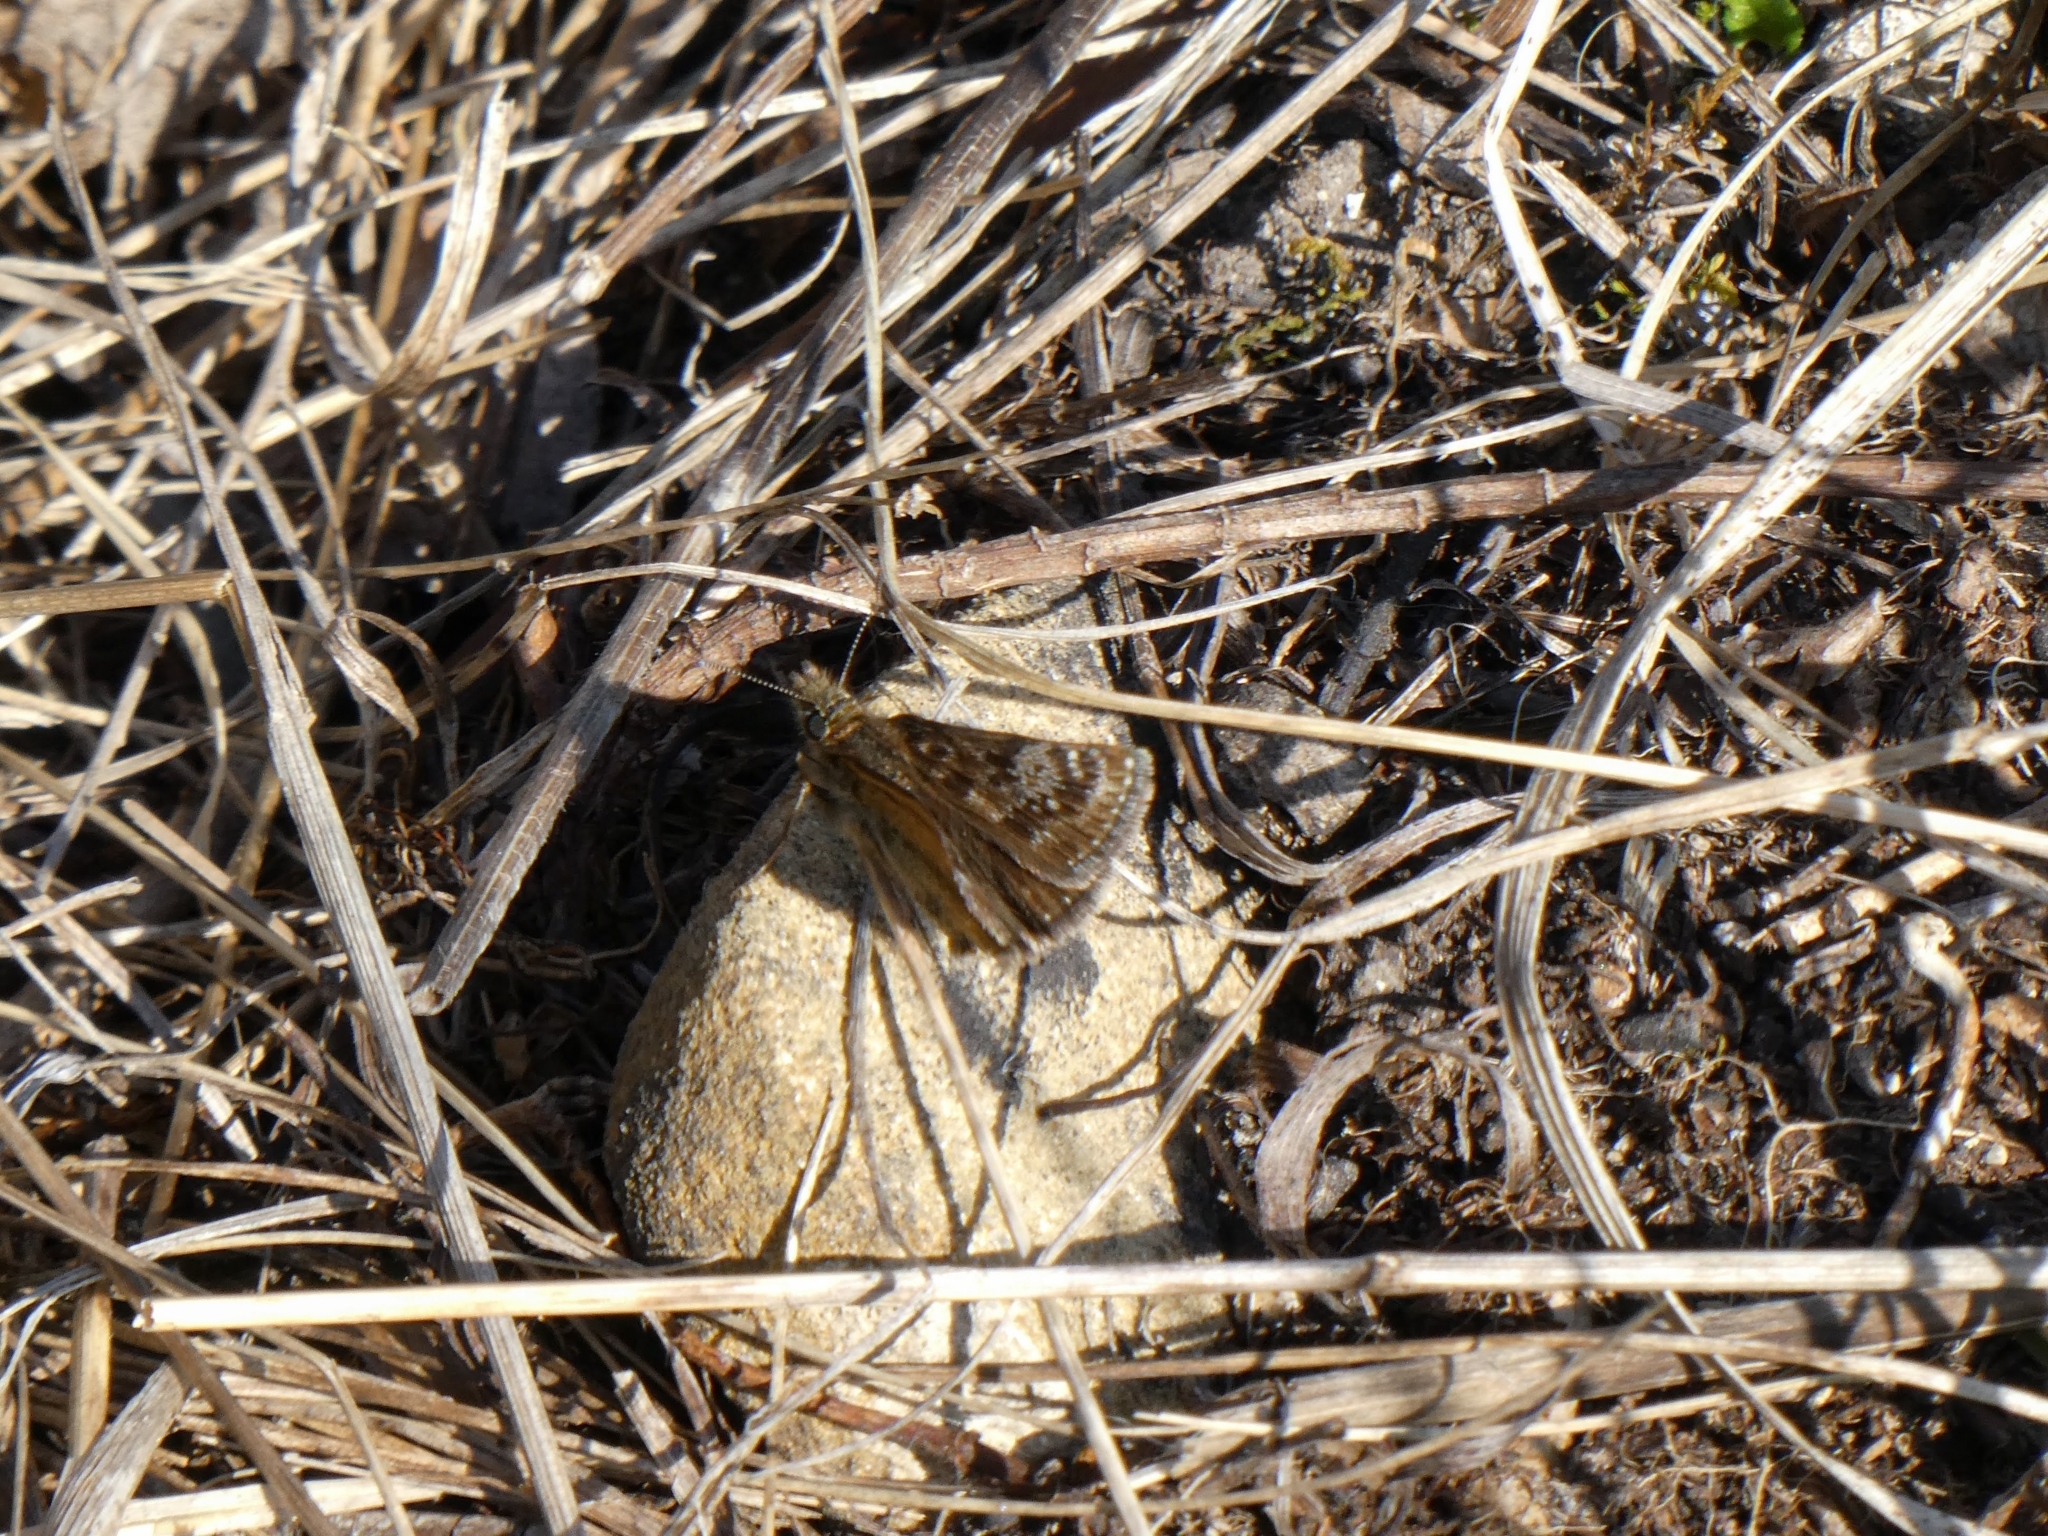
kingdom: Animalia
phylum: Arthropoda
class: Insecta
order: Lepidoptera
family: Hesperiidae
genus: Erynnis
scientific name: Erynnis tages
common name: Dingy skipper
